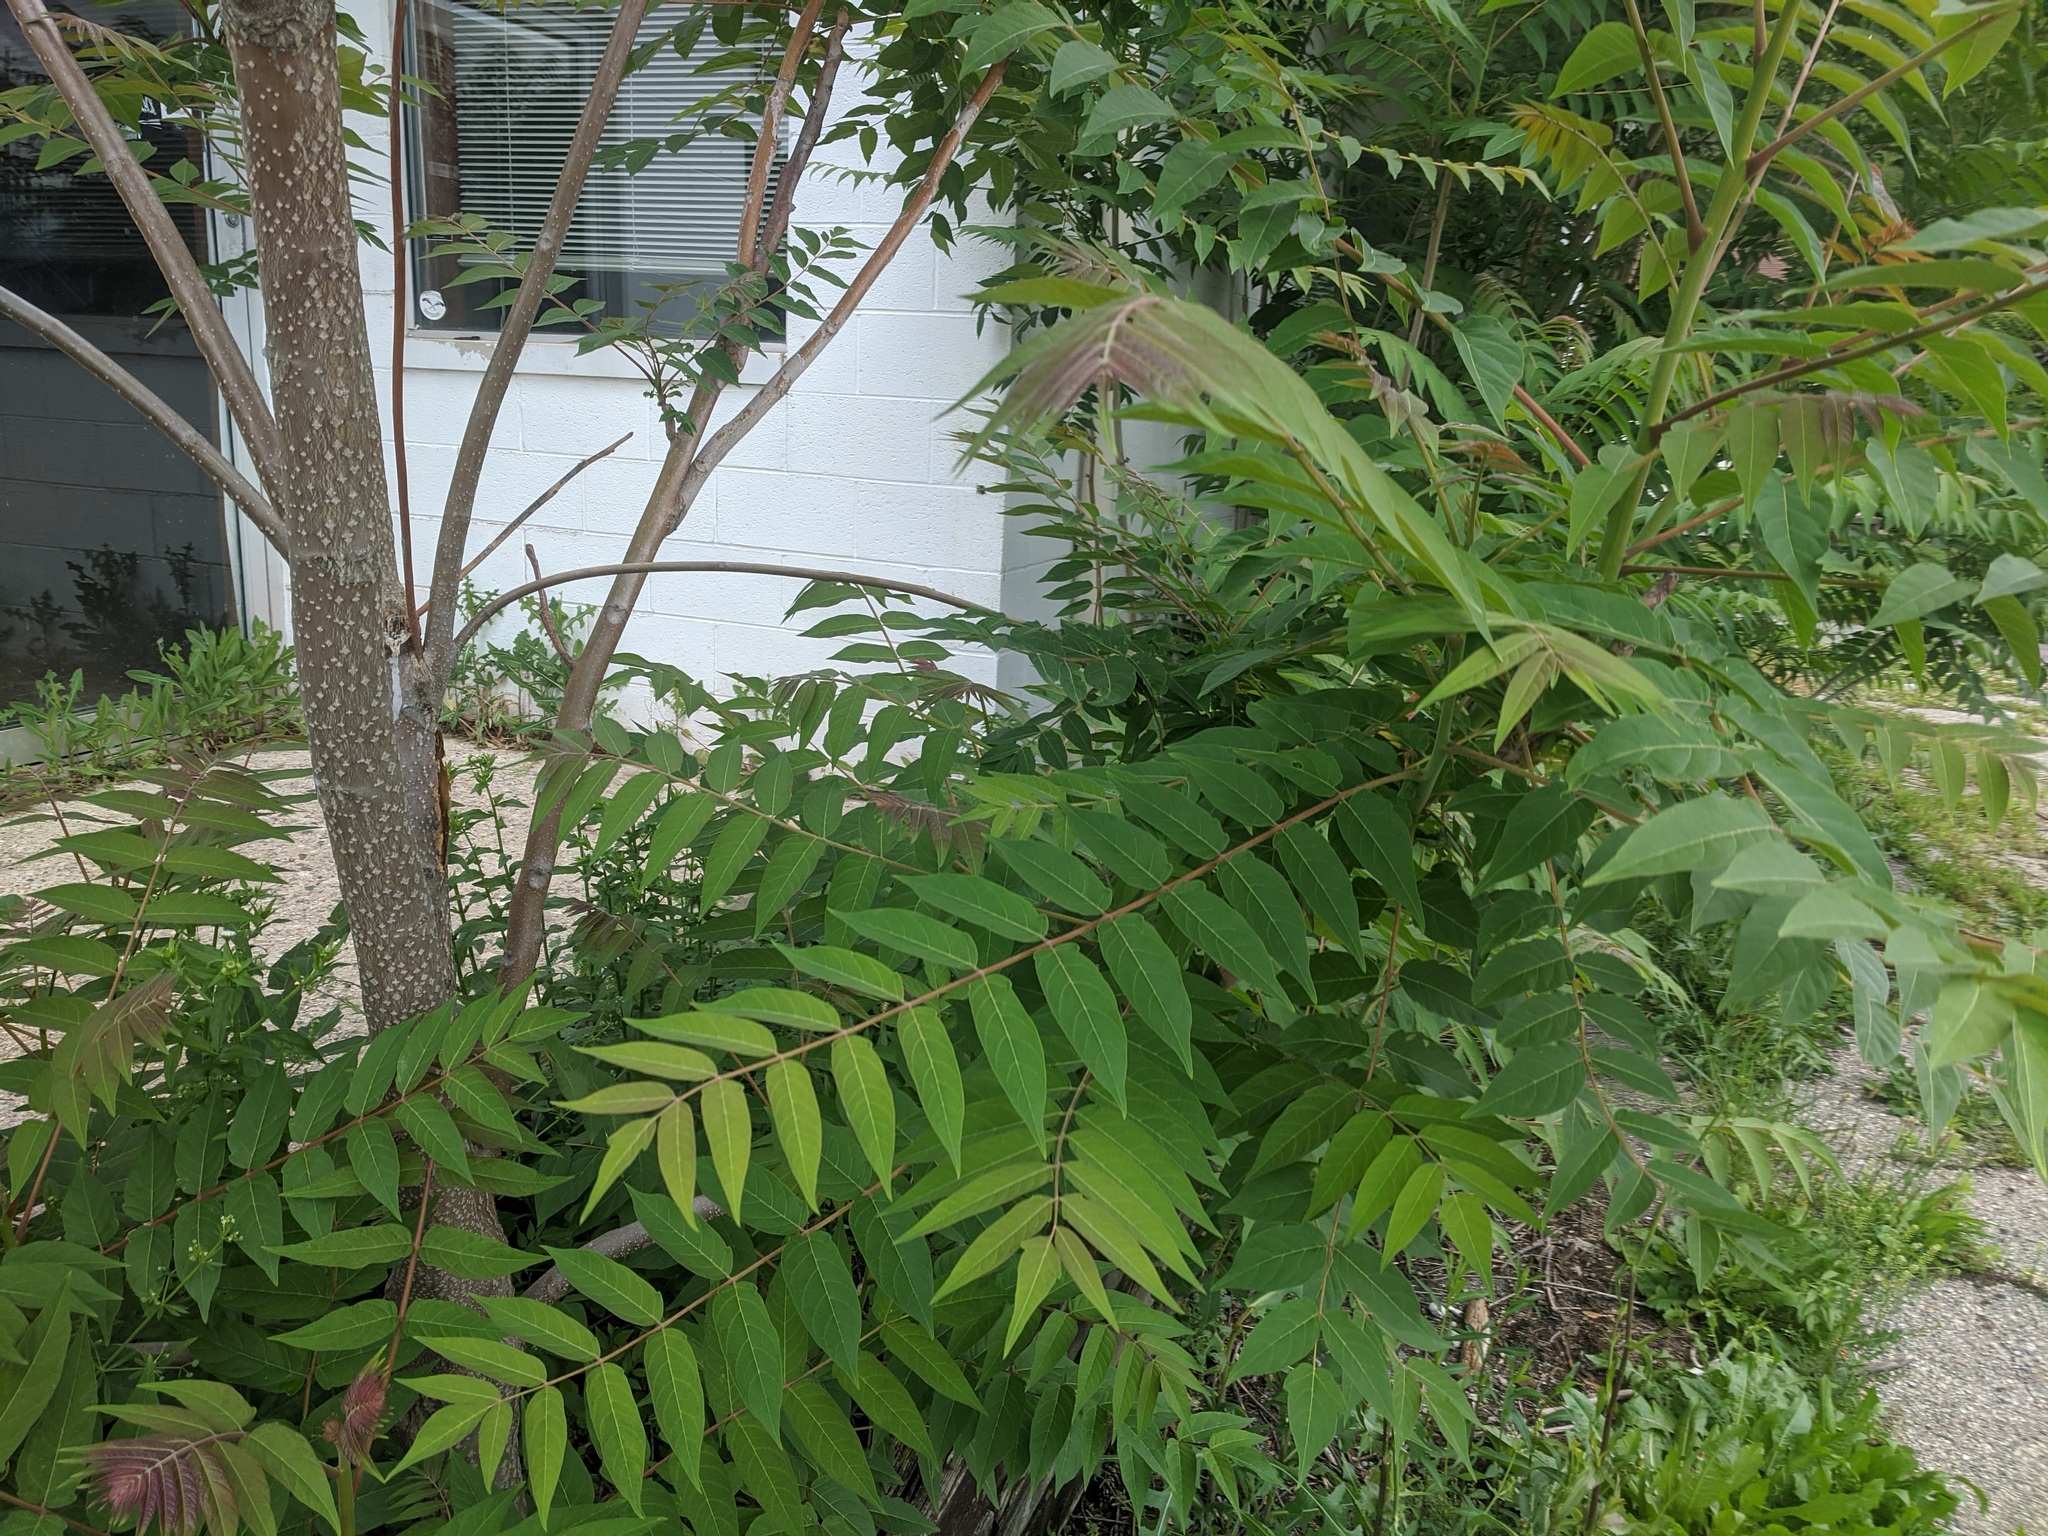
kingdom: Plantae
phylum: Tracheophyta
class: Magnoliopsida
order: Sapindales
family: Simaroubaceae
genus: Ailanthus
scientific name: Ailanthus altissima
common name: Tree-of-heaven
